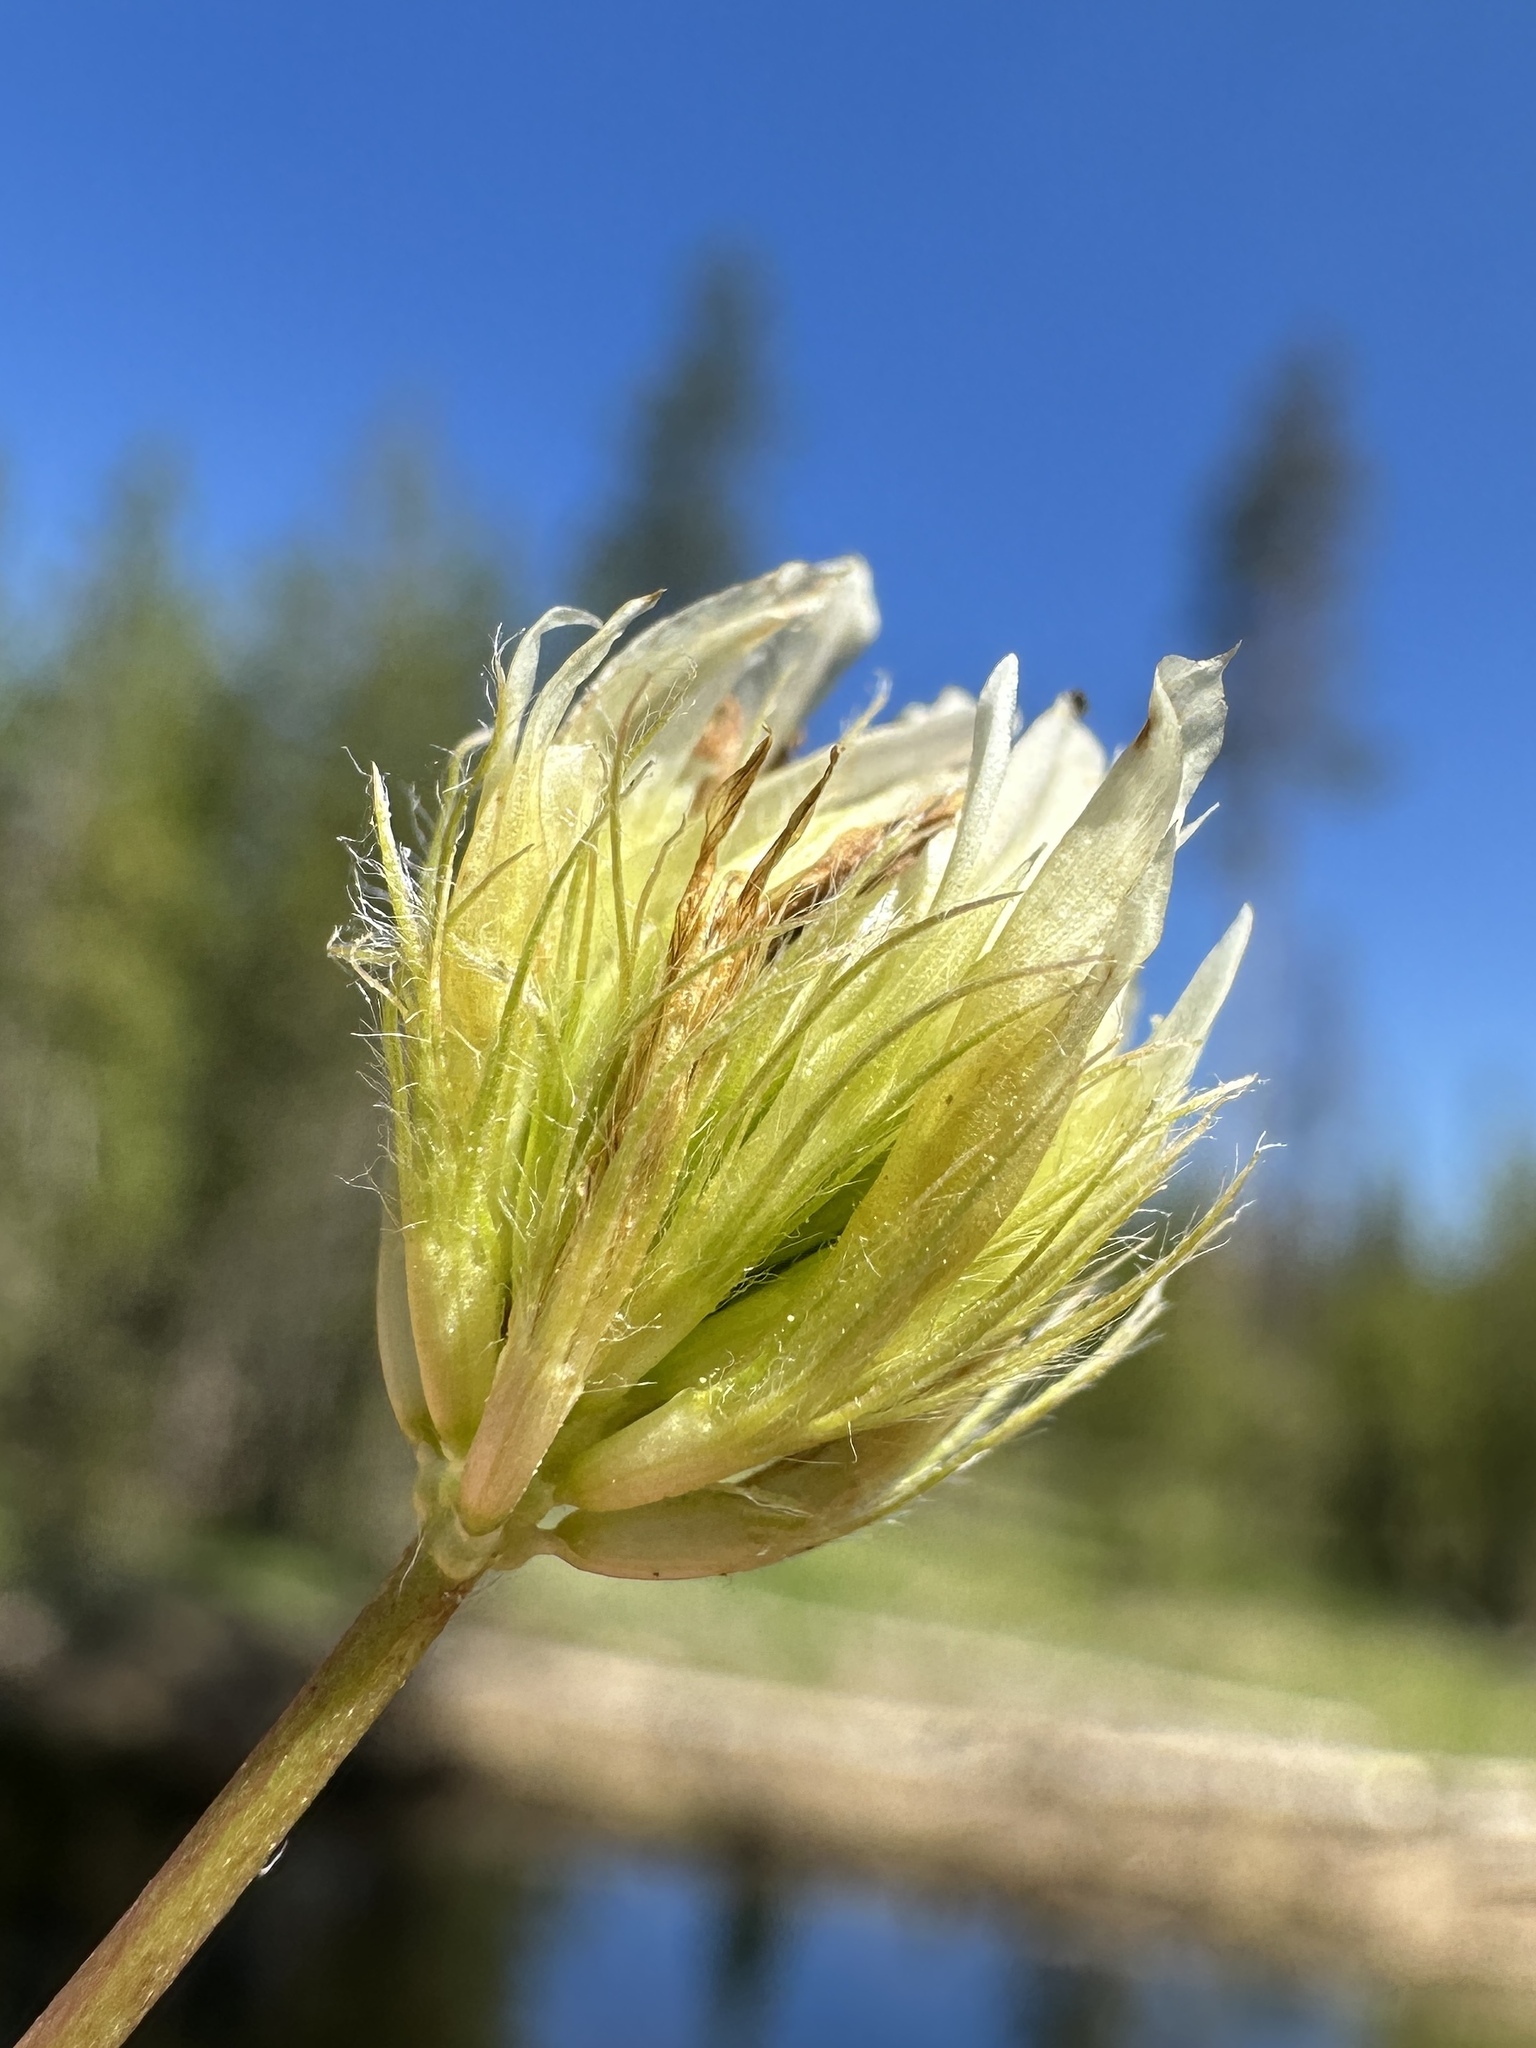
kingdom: Plantae
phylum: Tracheophyta
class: Magnoliopsida
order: Fabales
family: Fabaceae
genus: Trifolium
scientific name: Trifolium longipes
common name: Long-stalk clover
